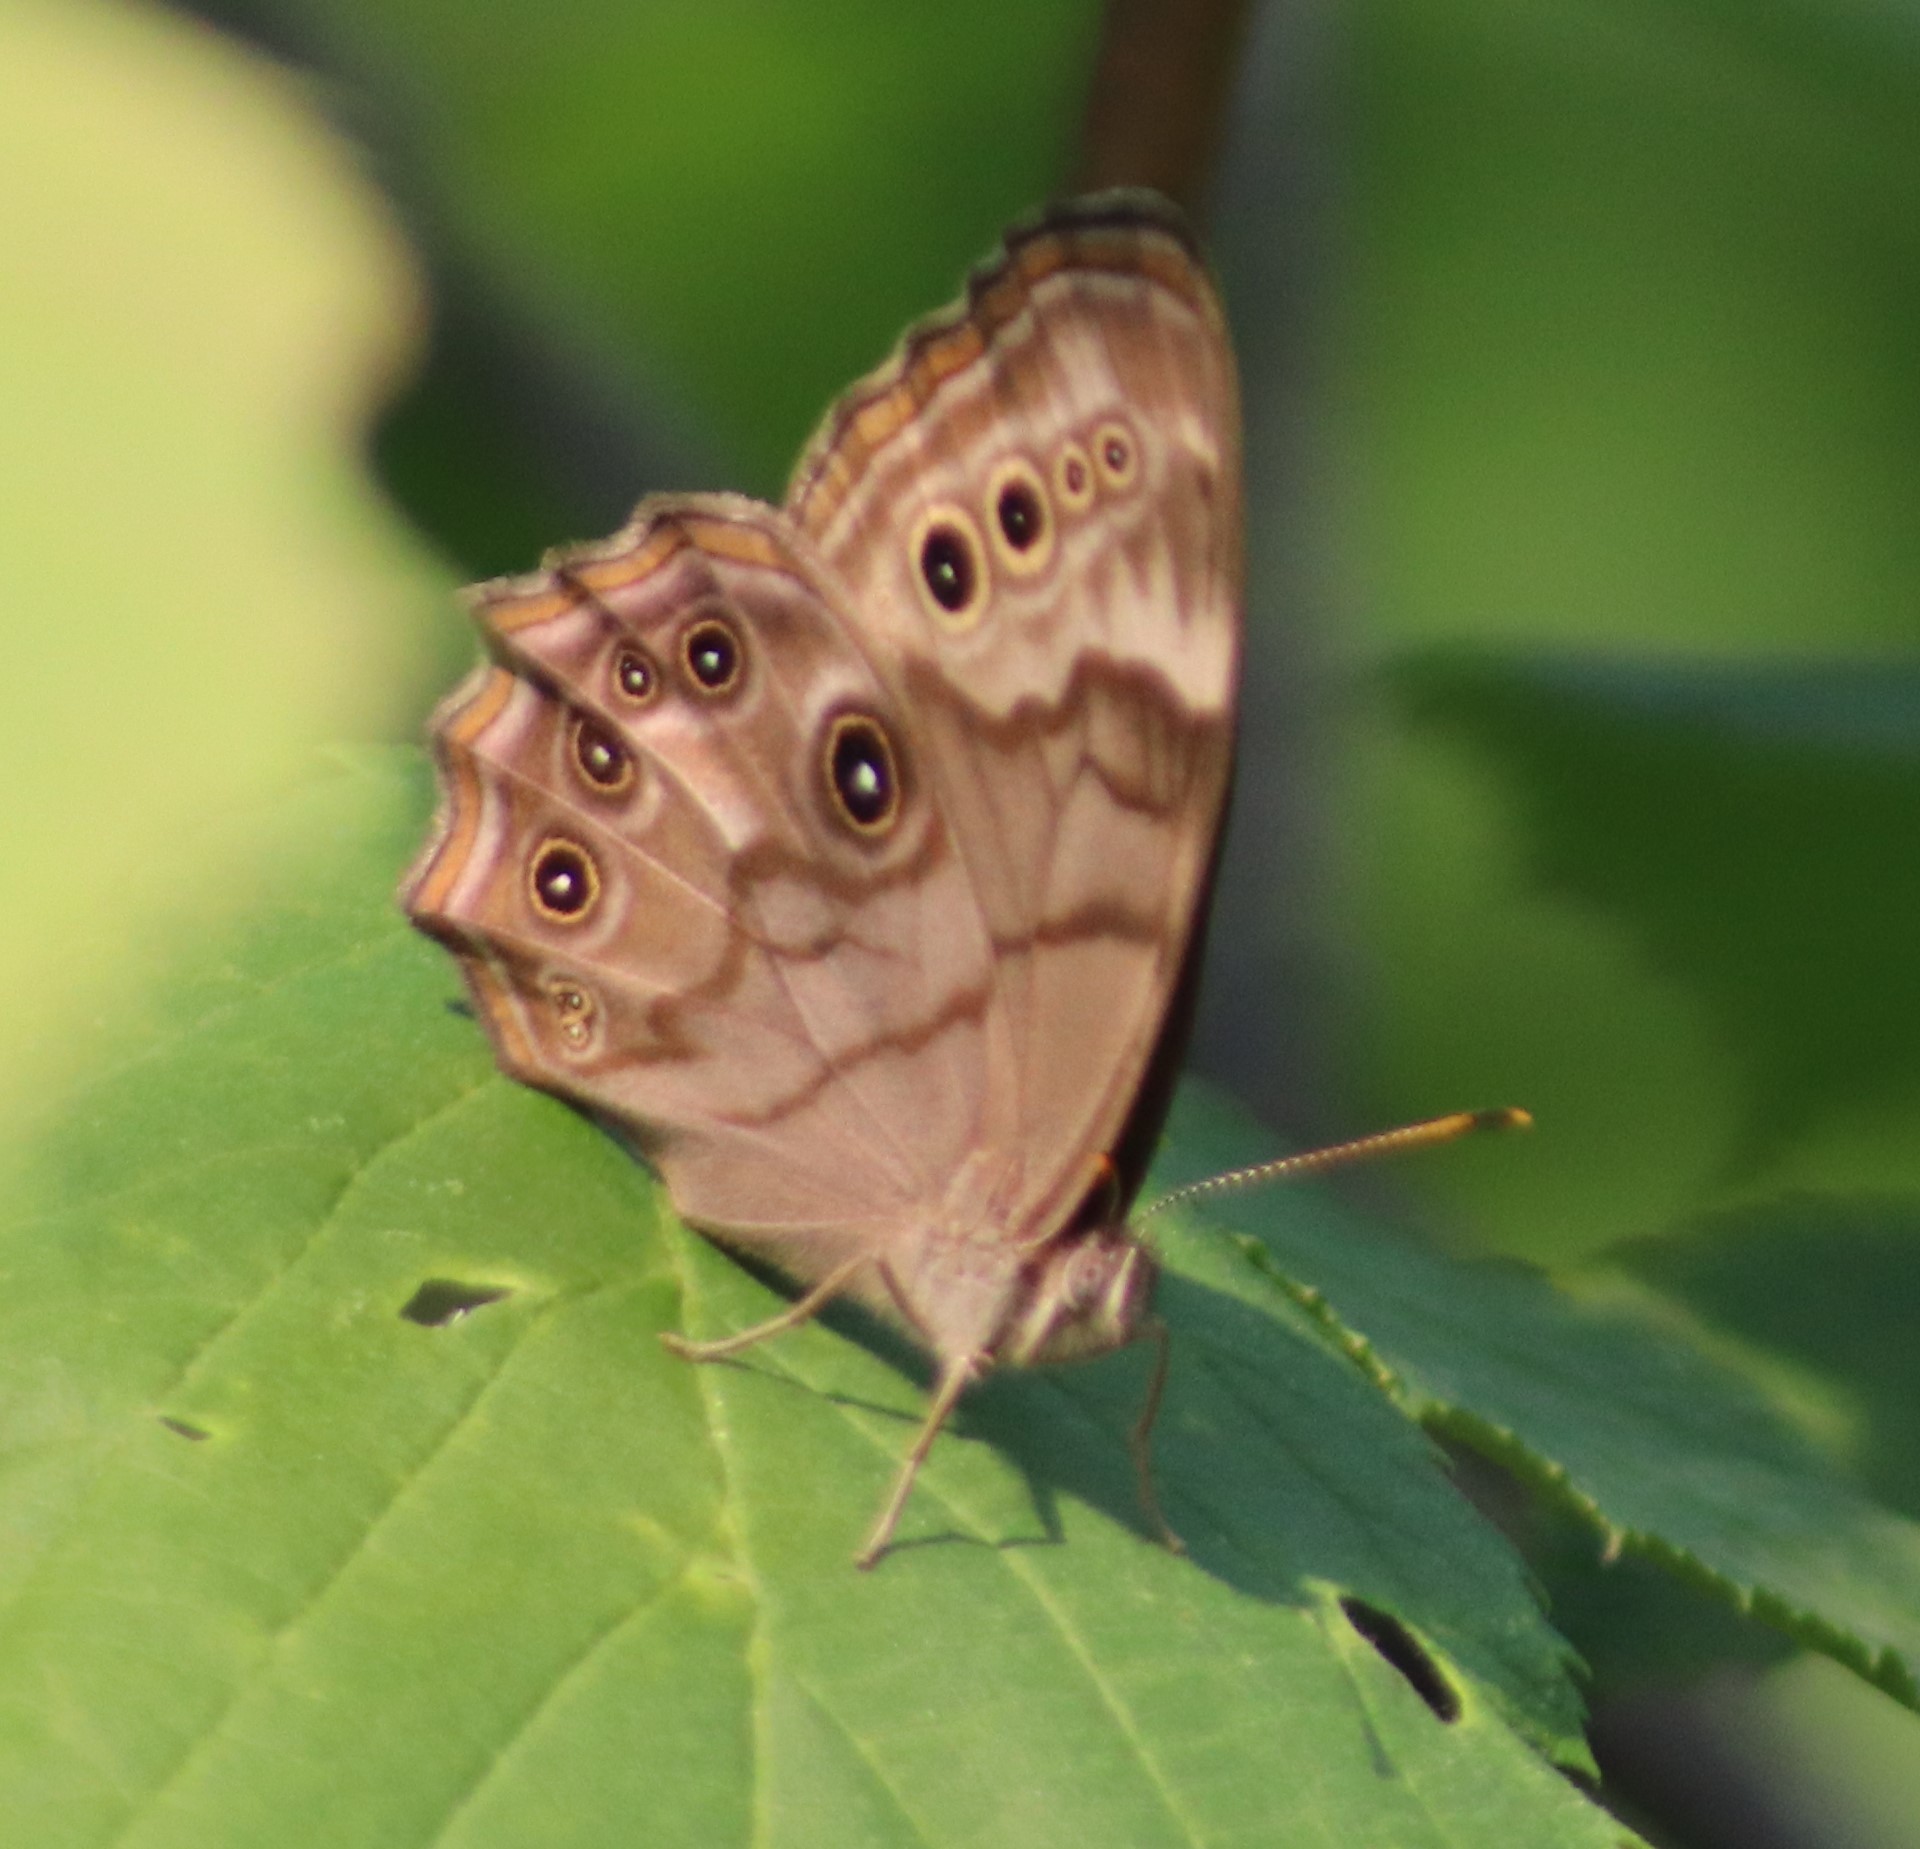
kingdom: Animalia
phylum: Arthropoda
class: Insecta
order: Lepidoptera
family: Nymphalidae
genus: Lethe
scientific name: Lethe anthedon
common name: Northern pearly-eye
